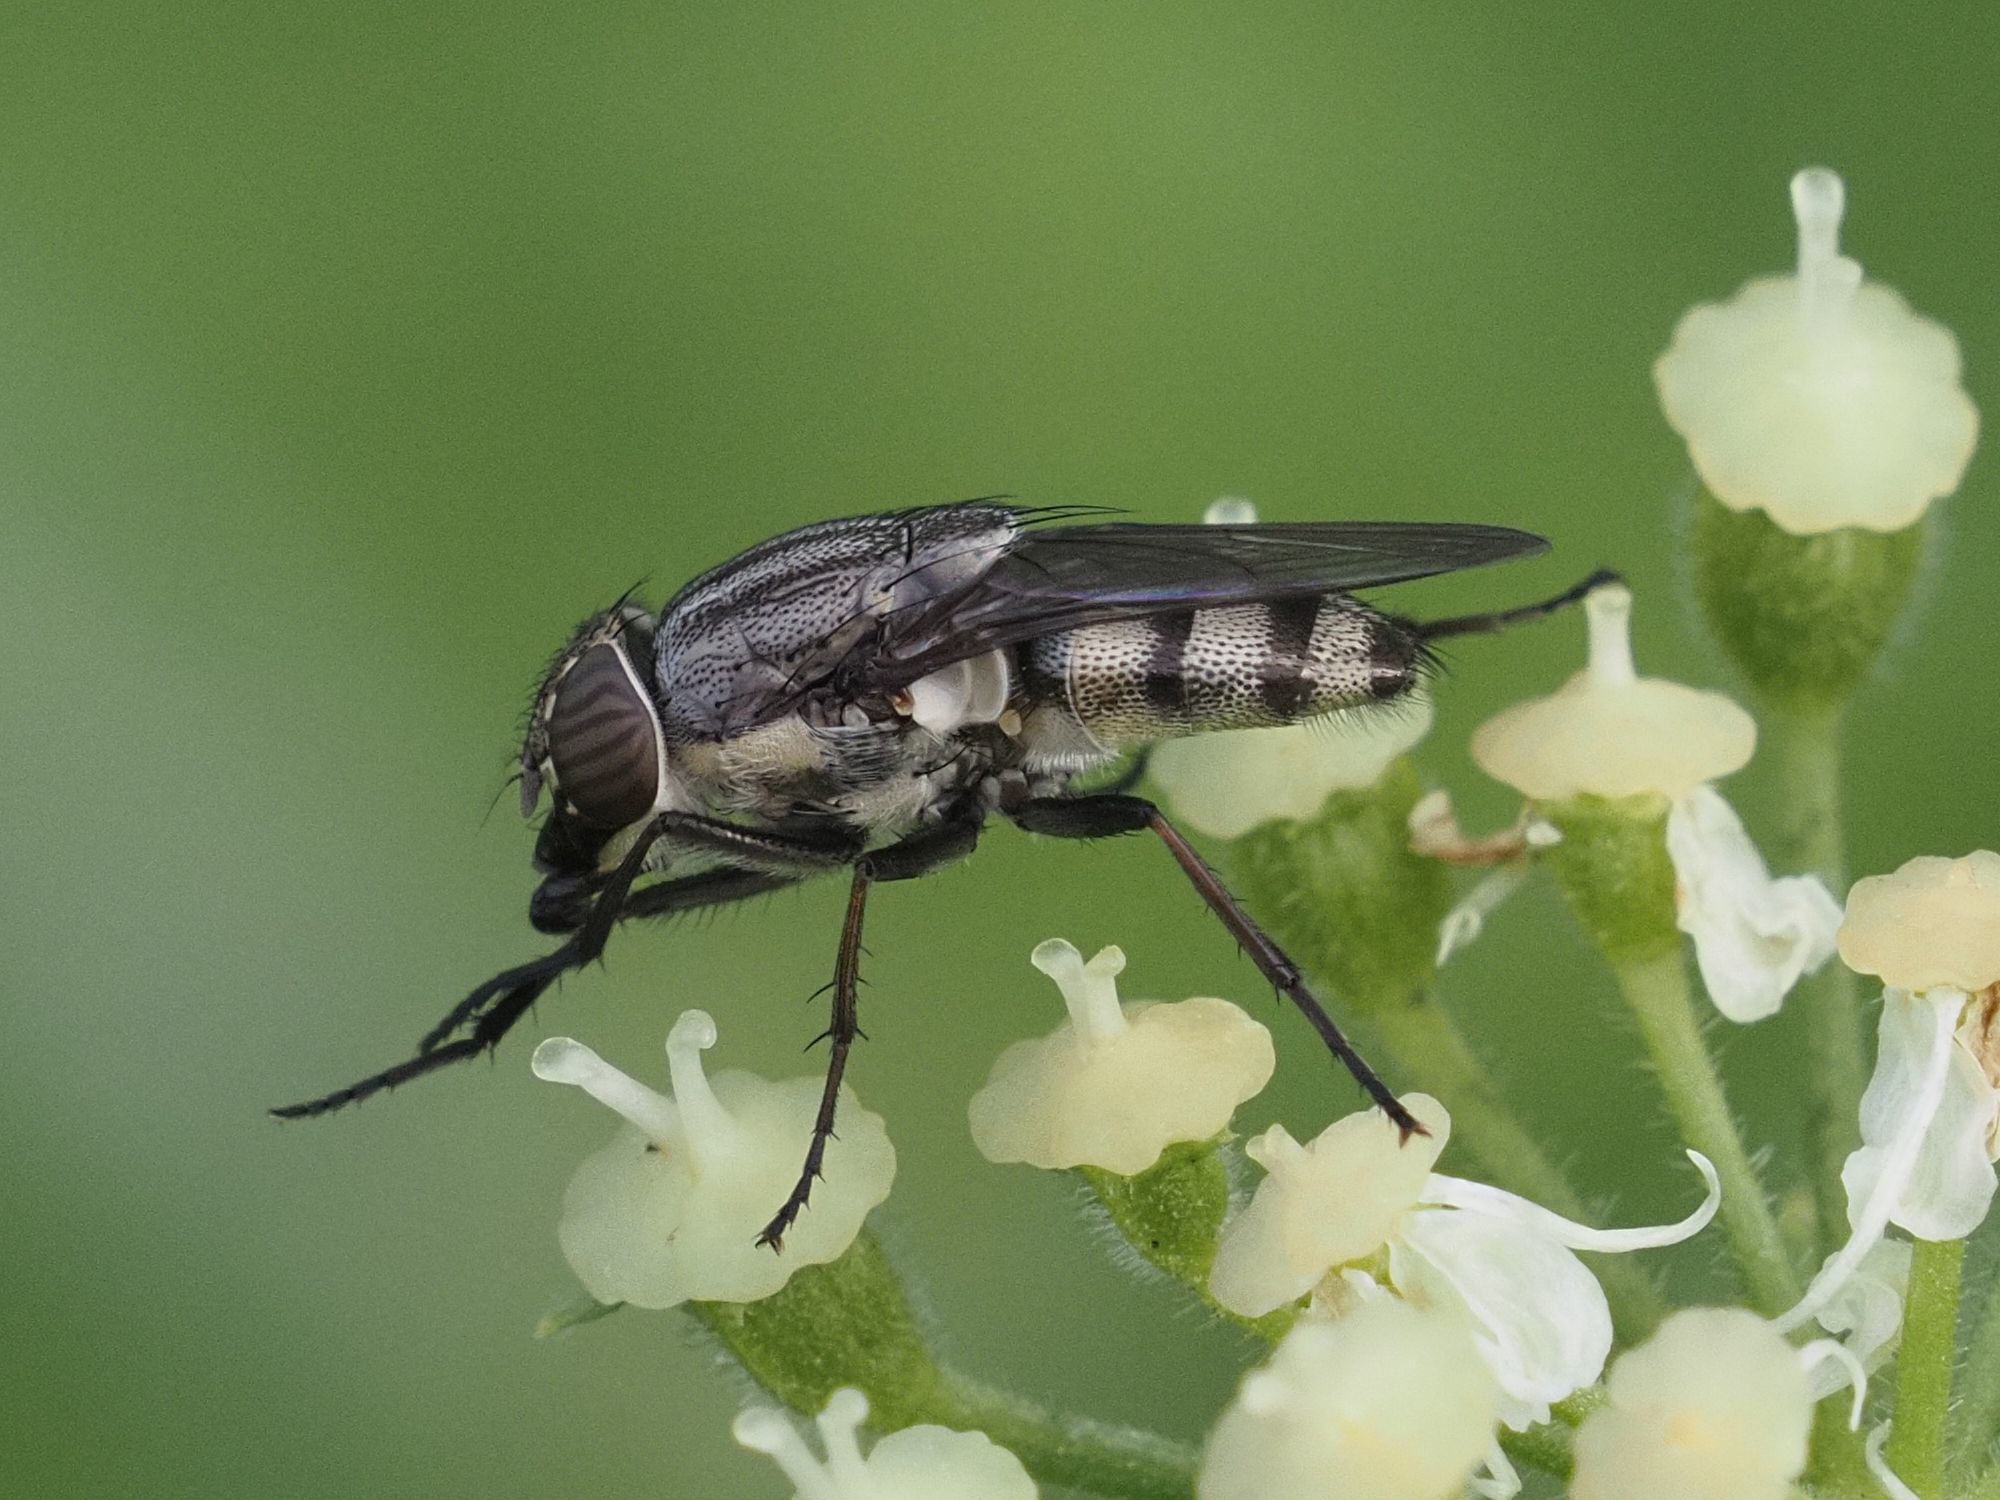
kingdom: Animalia
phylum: Arthropoda
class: Insecta
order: Diptera
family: Calliphoridae
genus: Stomorhina
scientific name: Stomorhina lunata
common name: Locust blowfly
